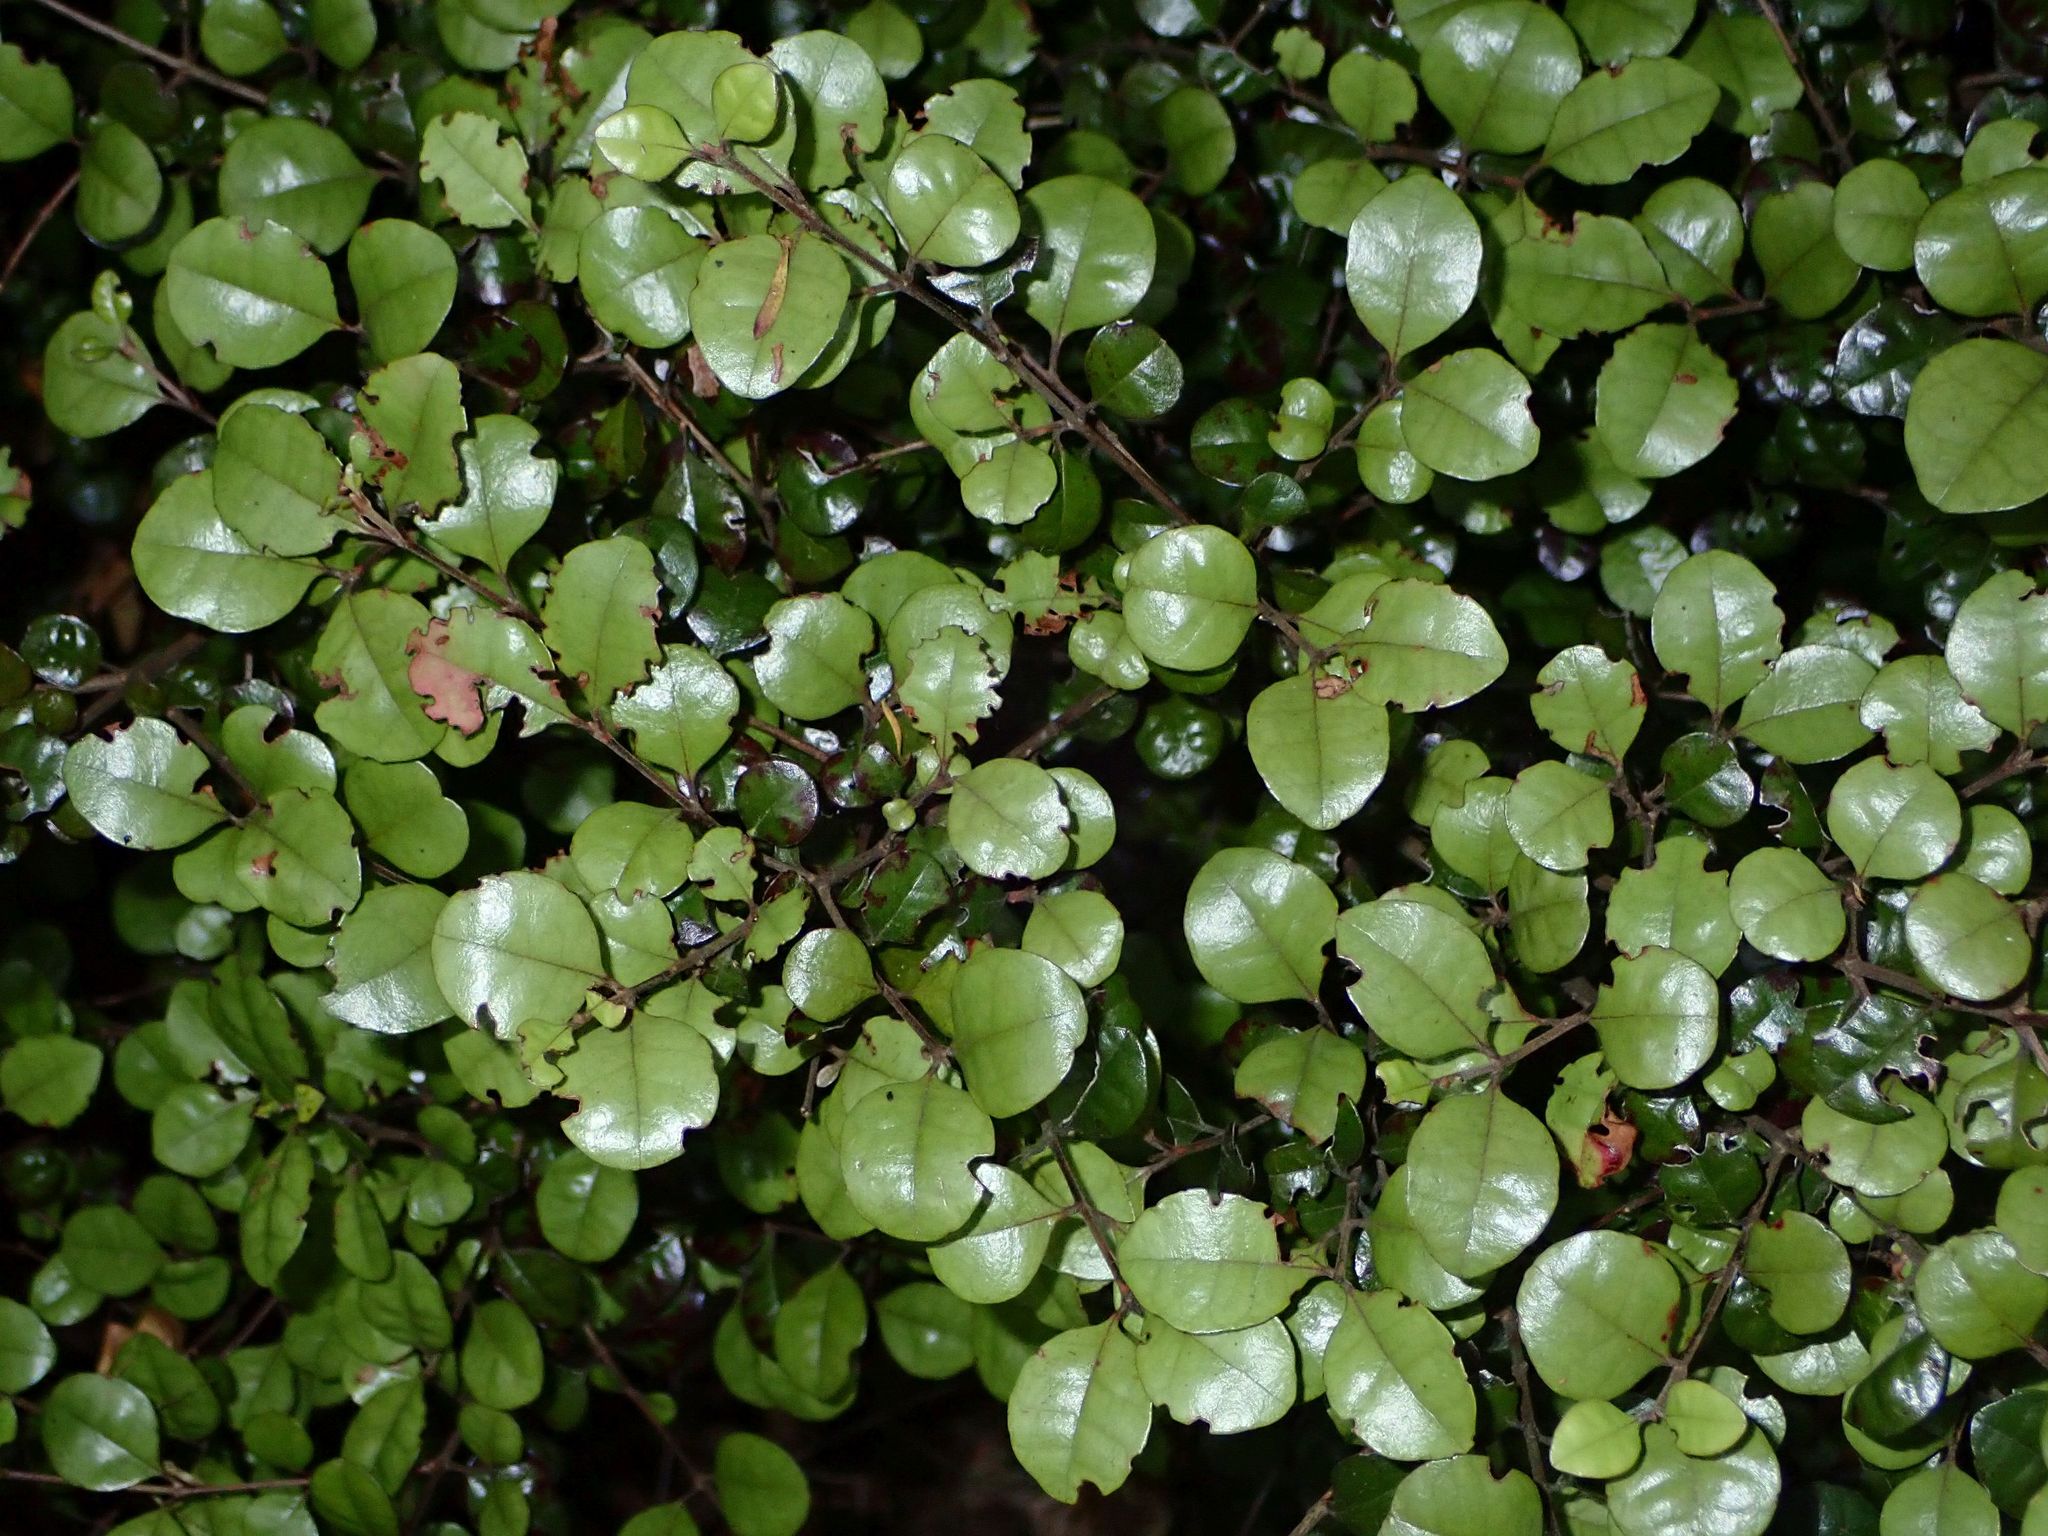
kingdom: Plantae
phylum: Tracheophyta
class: Magnoliopsida
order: Myrtales
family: Myrtaceae
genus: Lophomyrtus
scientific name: Lophomyrtus ralphii
